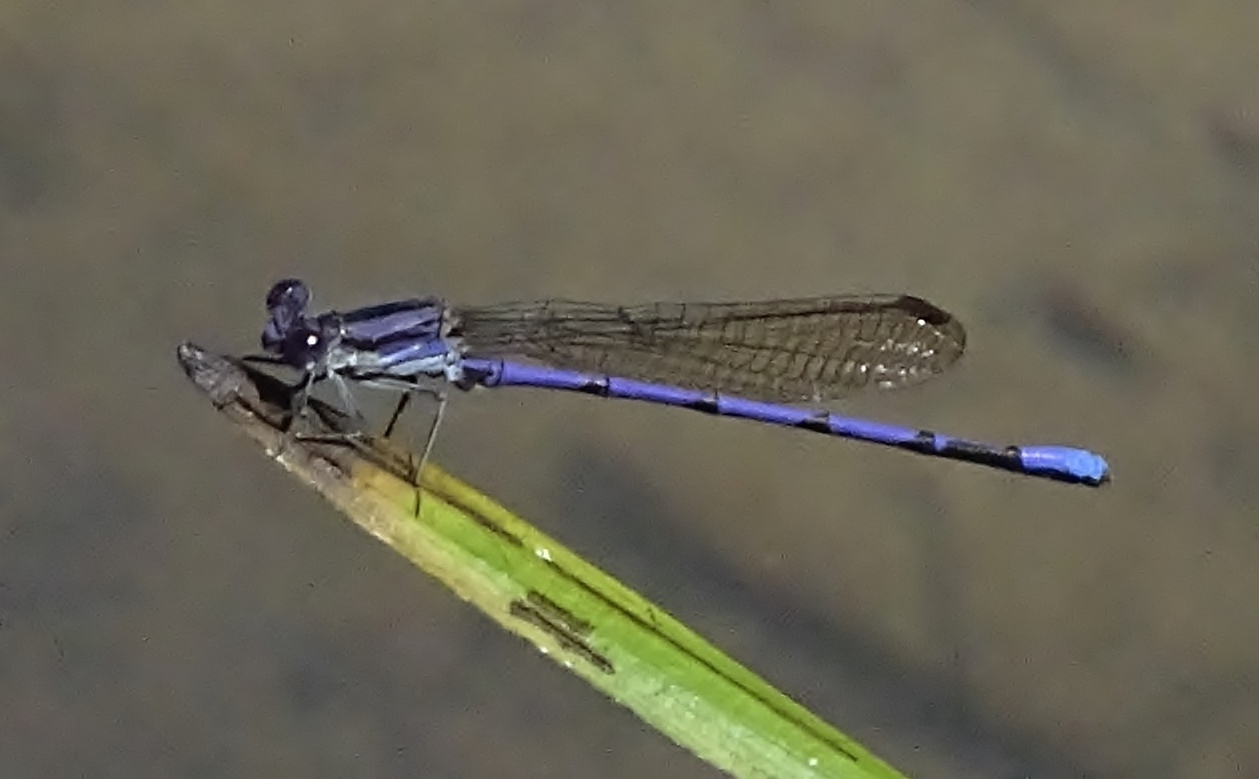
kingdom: Animalia
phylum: Arthropoda
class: Insecta
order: Odonata
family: Coenagrionidae
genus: Argia
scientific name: Argia fumipennis
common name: Variable dancer
